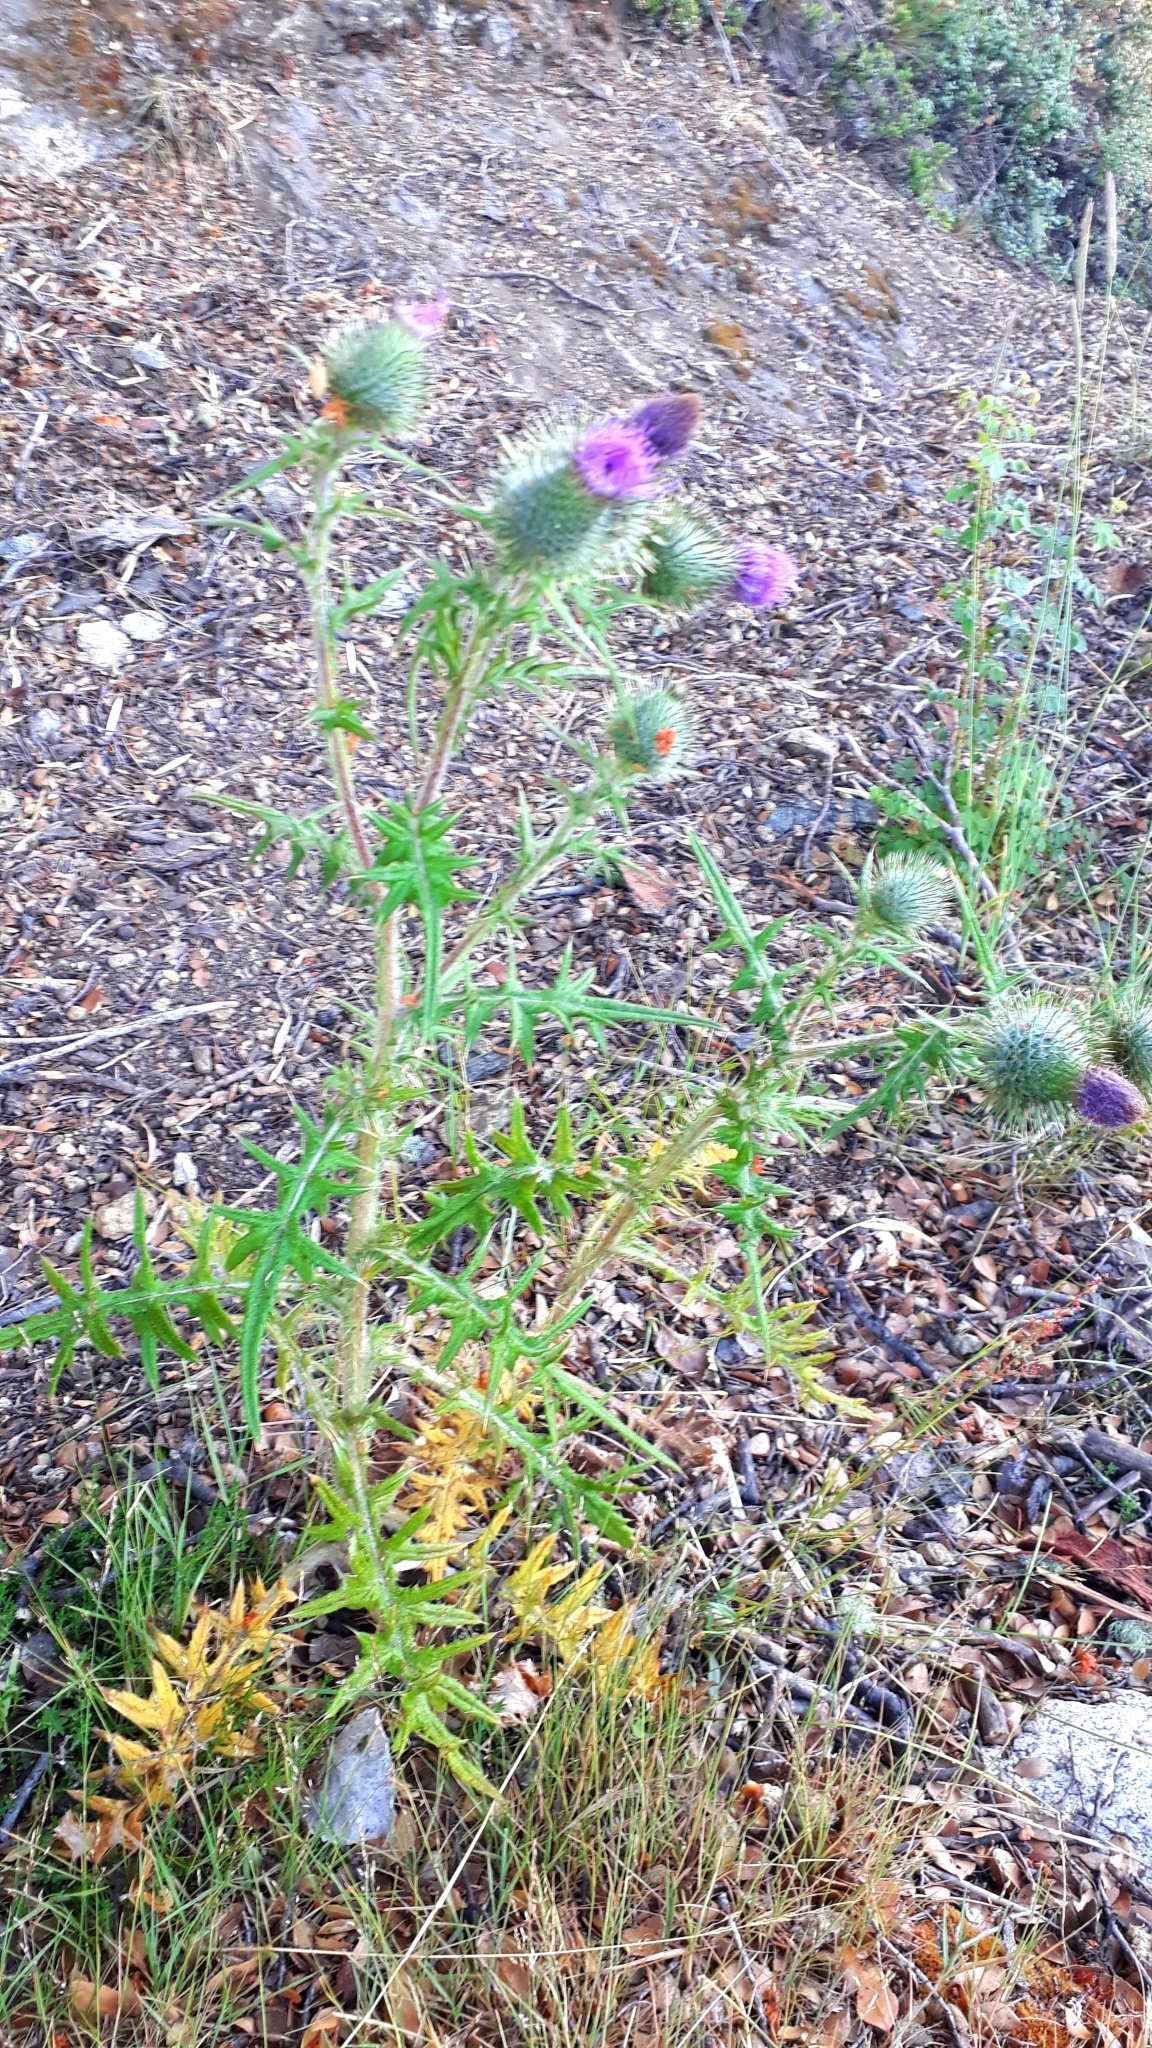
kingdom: Plantae
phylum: Tracheophyta
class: Magnoliopsida
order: Asterales
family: Asteraceae
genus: Cirsium
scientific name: Cirsium vulgare
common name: Bull thistle
